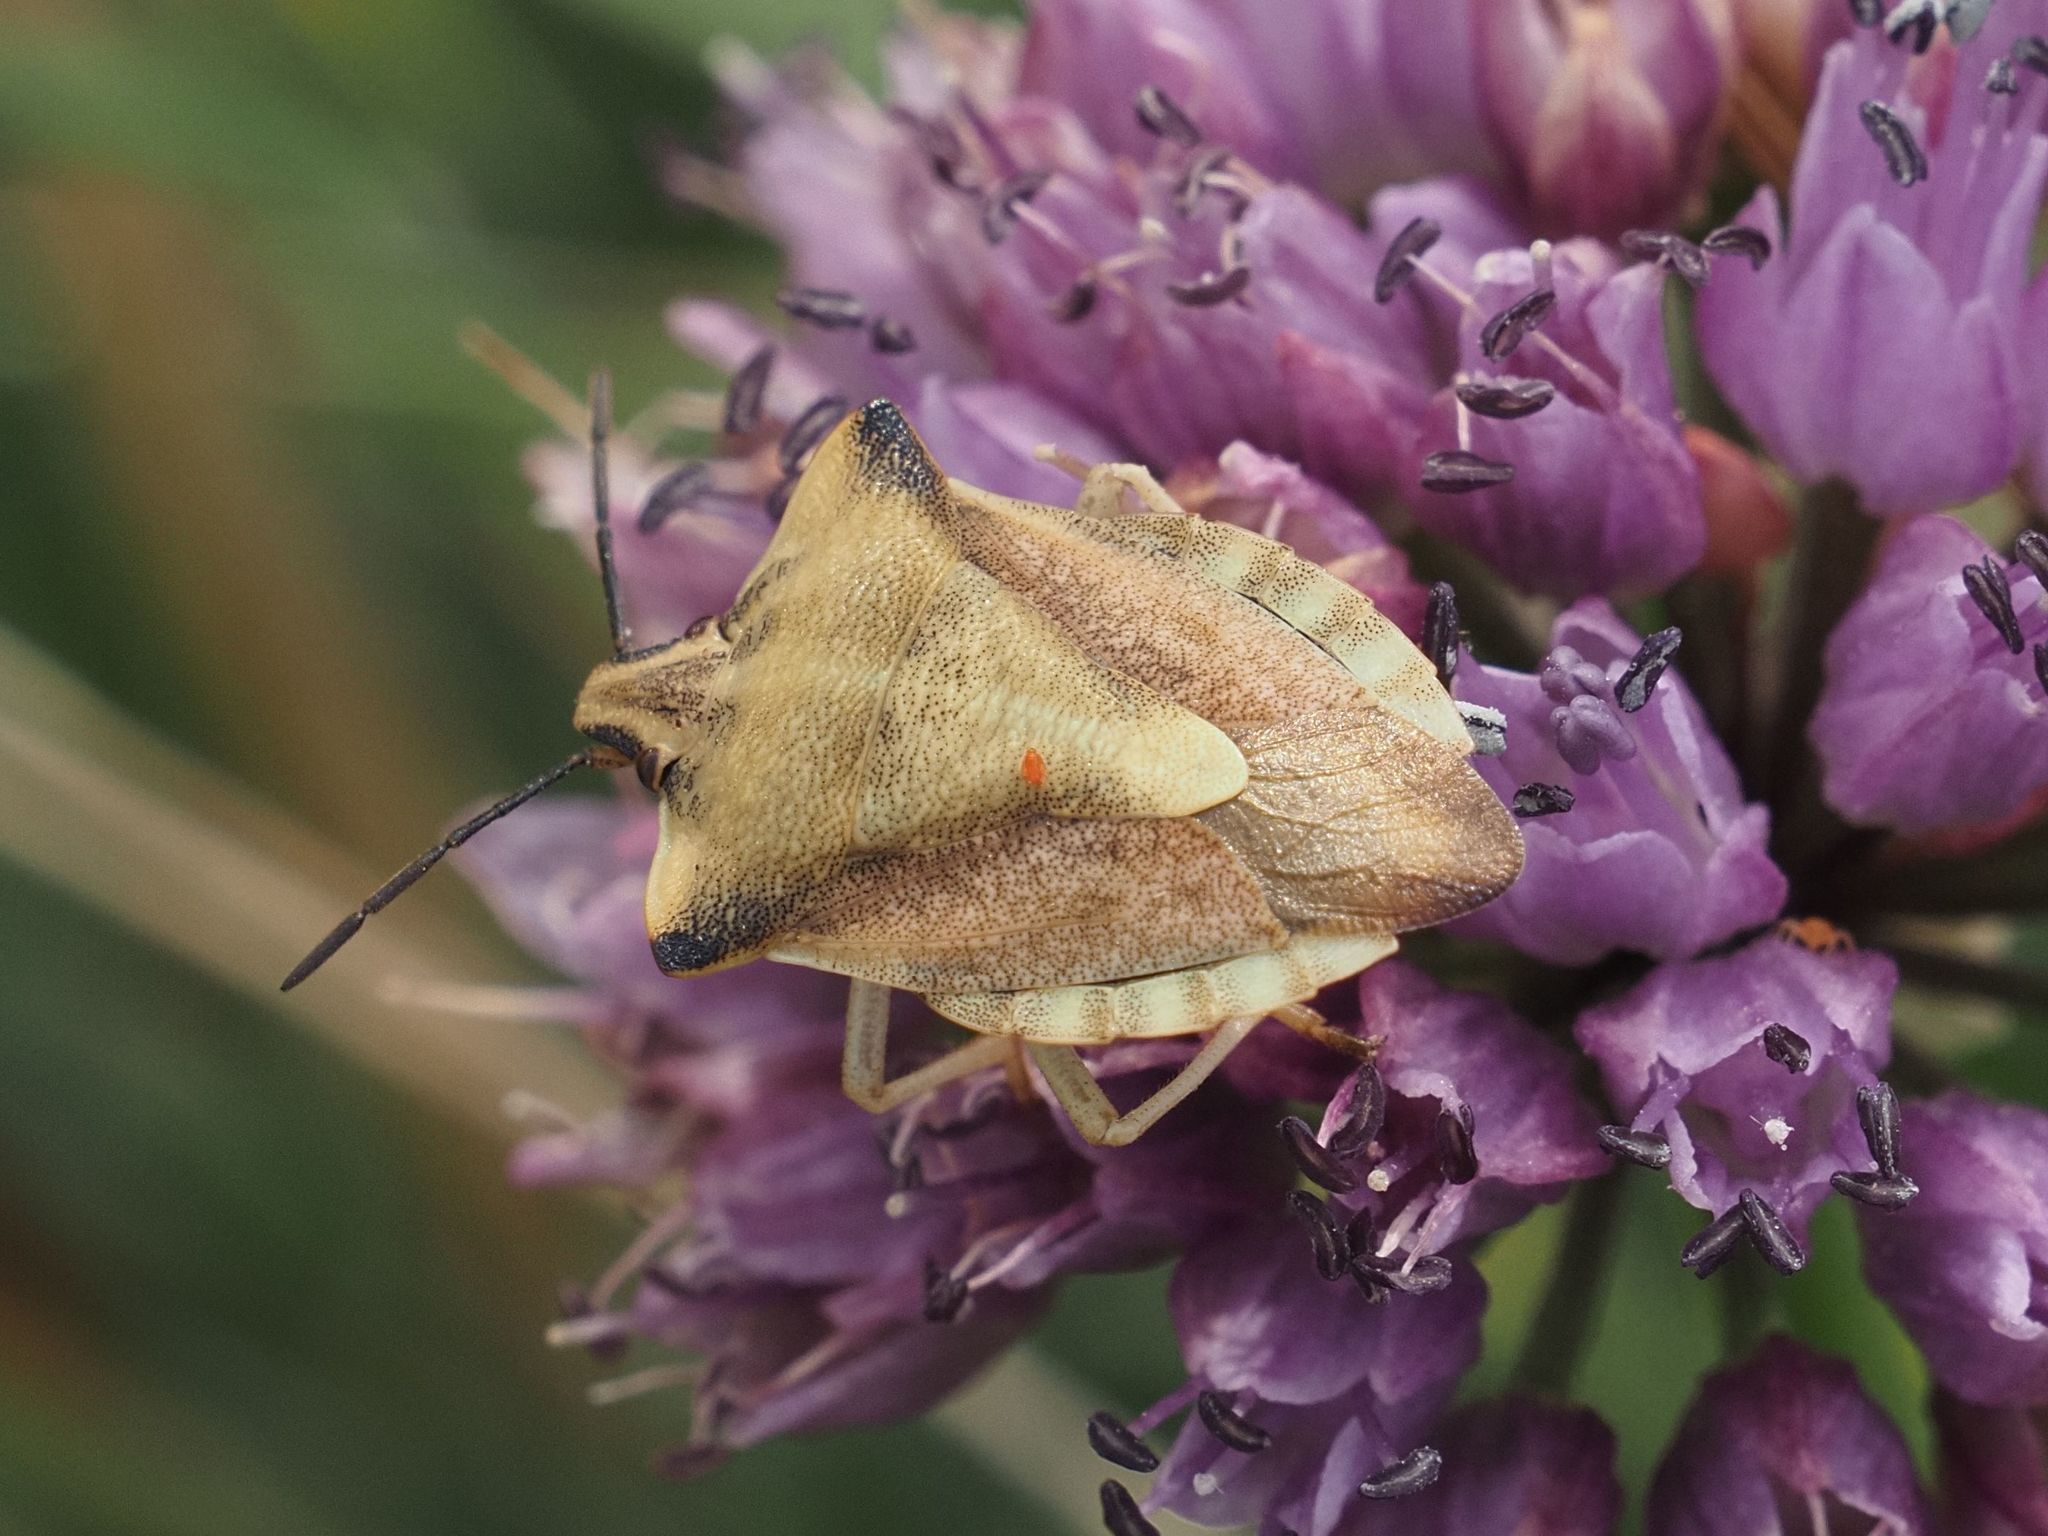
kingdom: Animalia
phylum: Arthropoda
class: Insecta
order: Hemiptera
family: Pentatomidae
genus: Carpocoris
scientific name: Carpocoris fuscispinus
